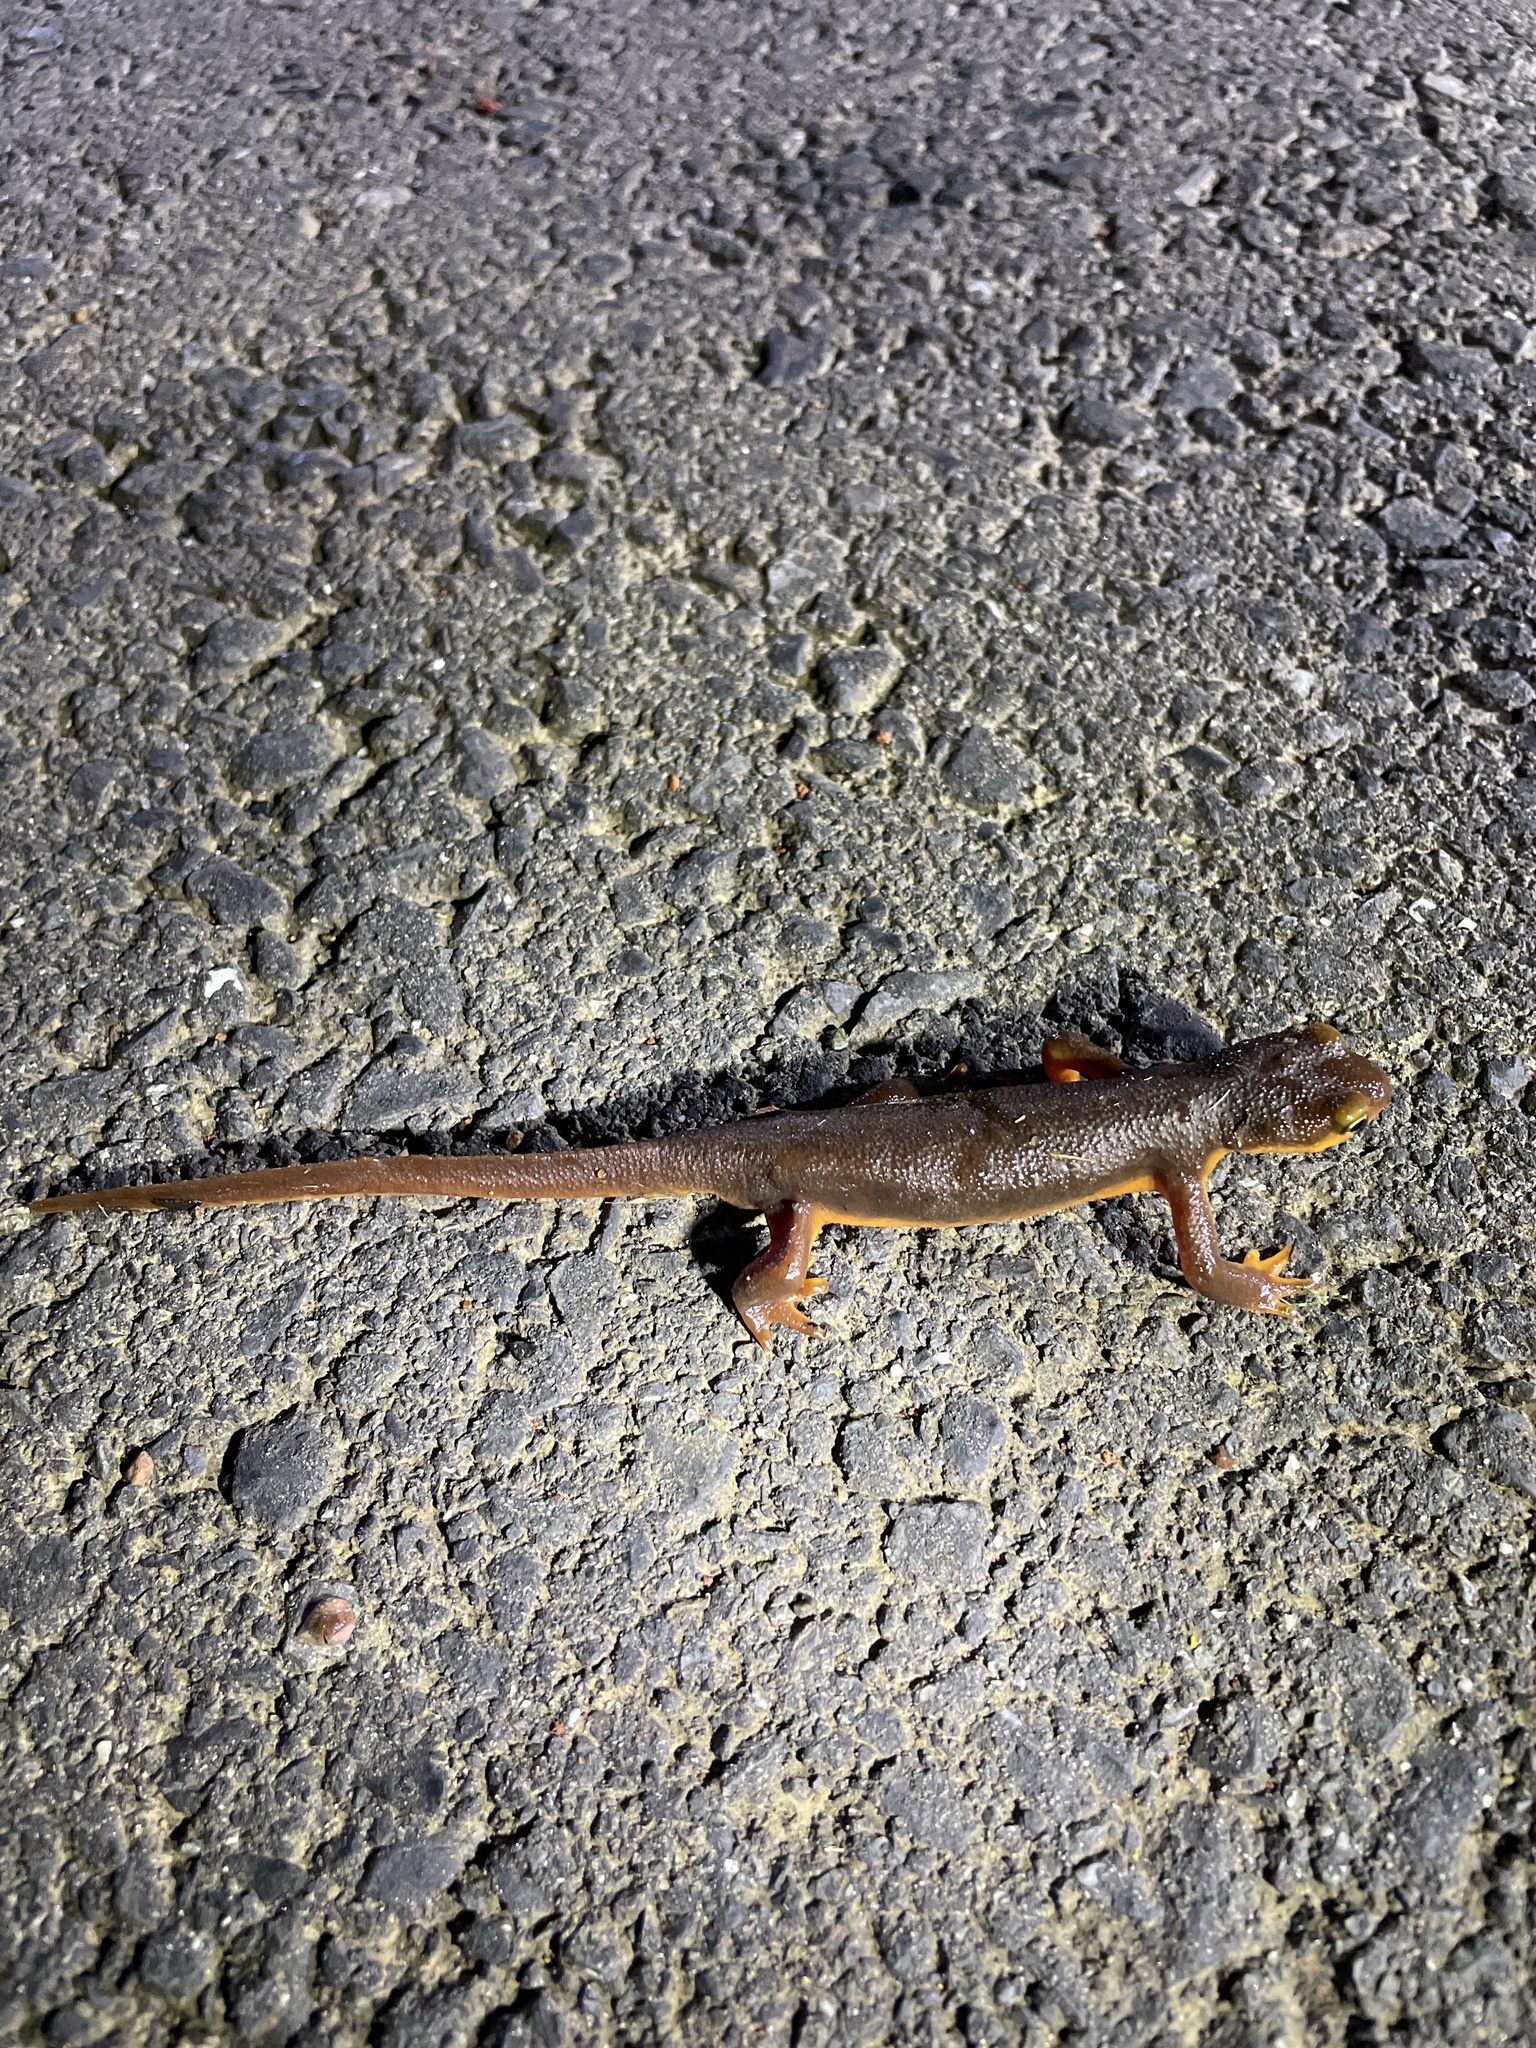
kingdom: Animalia
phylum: Chordata
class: Amphibia
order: Caudata
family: Salamandridae
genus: Taricha
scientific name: Taricha torosa
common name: California newt
